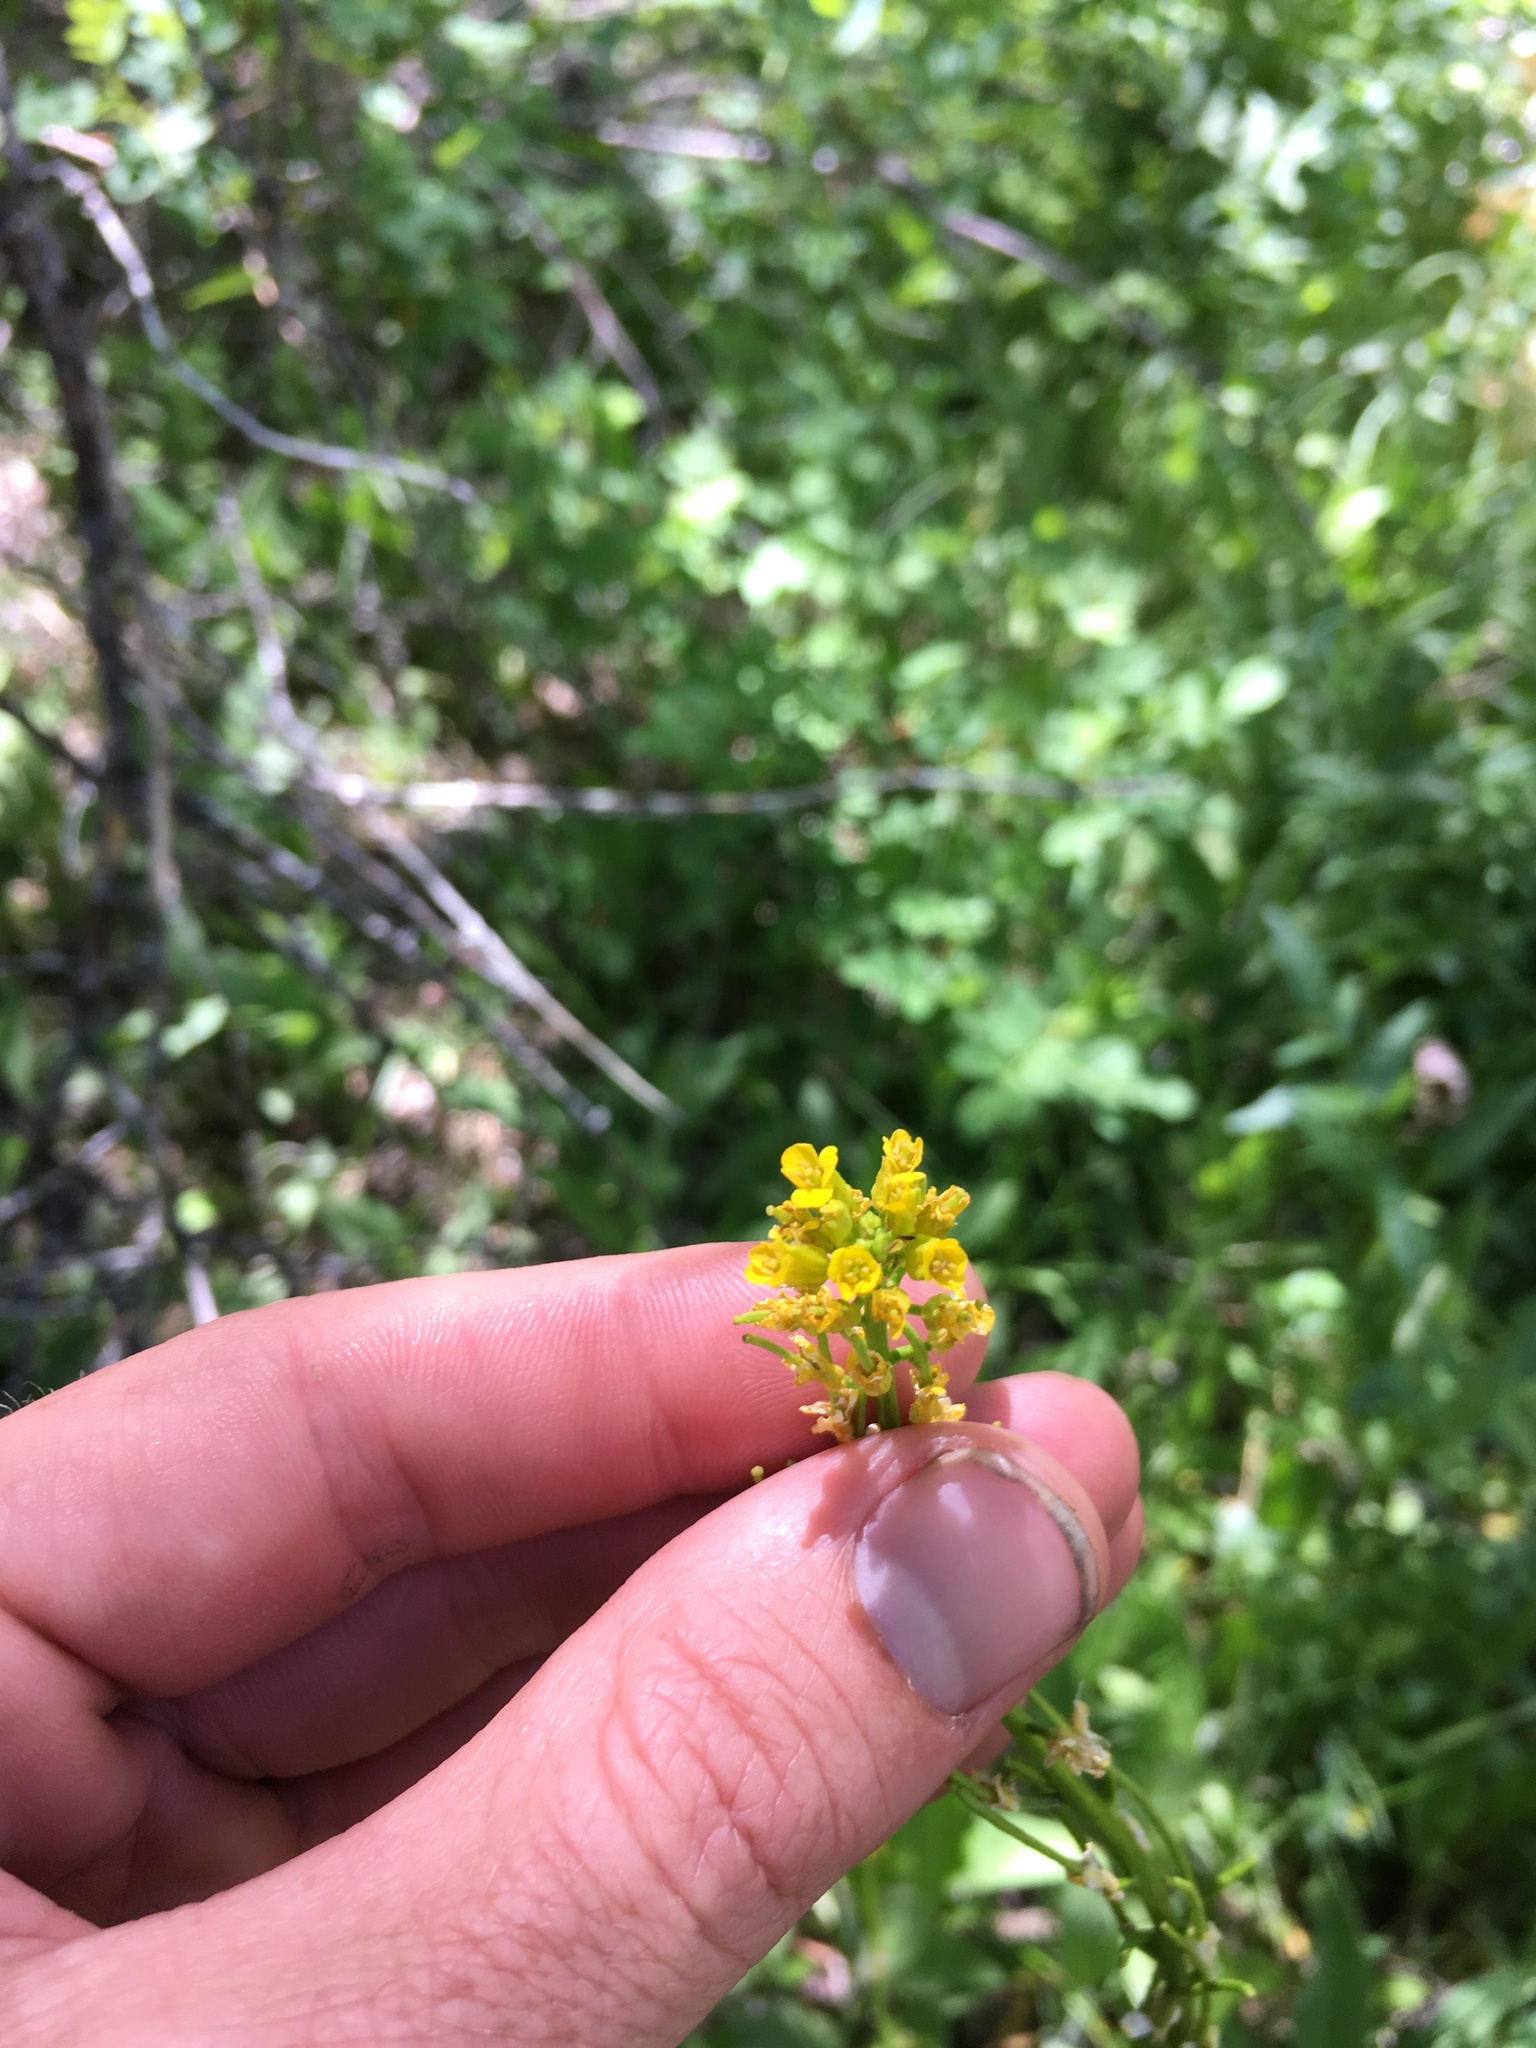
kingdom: Plantae
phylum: Tracheophyta
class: Magnoliopsida
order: Brassicales
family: Brassicaceae
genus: Barbarea
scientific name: Barbarea orthoceras
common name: American wintercress
